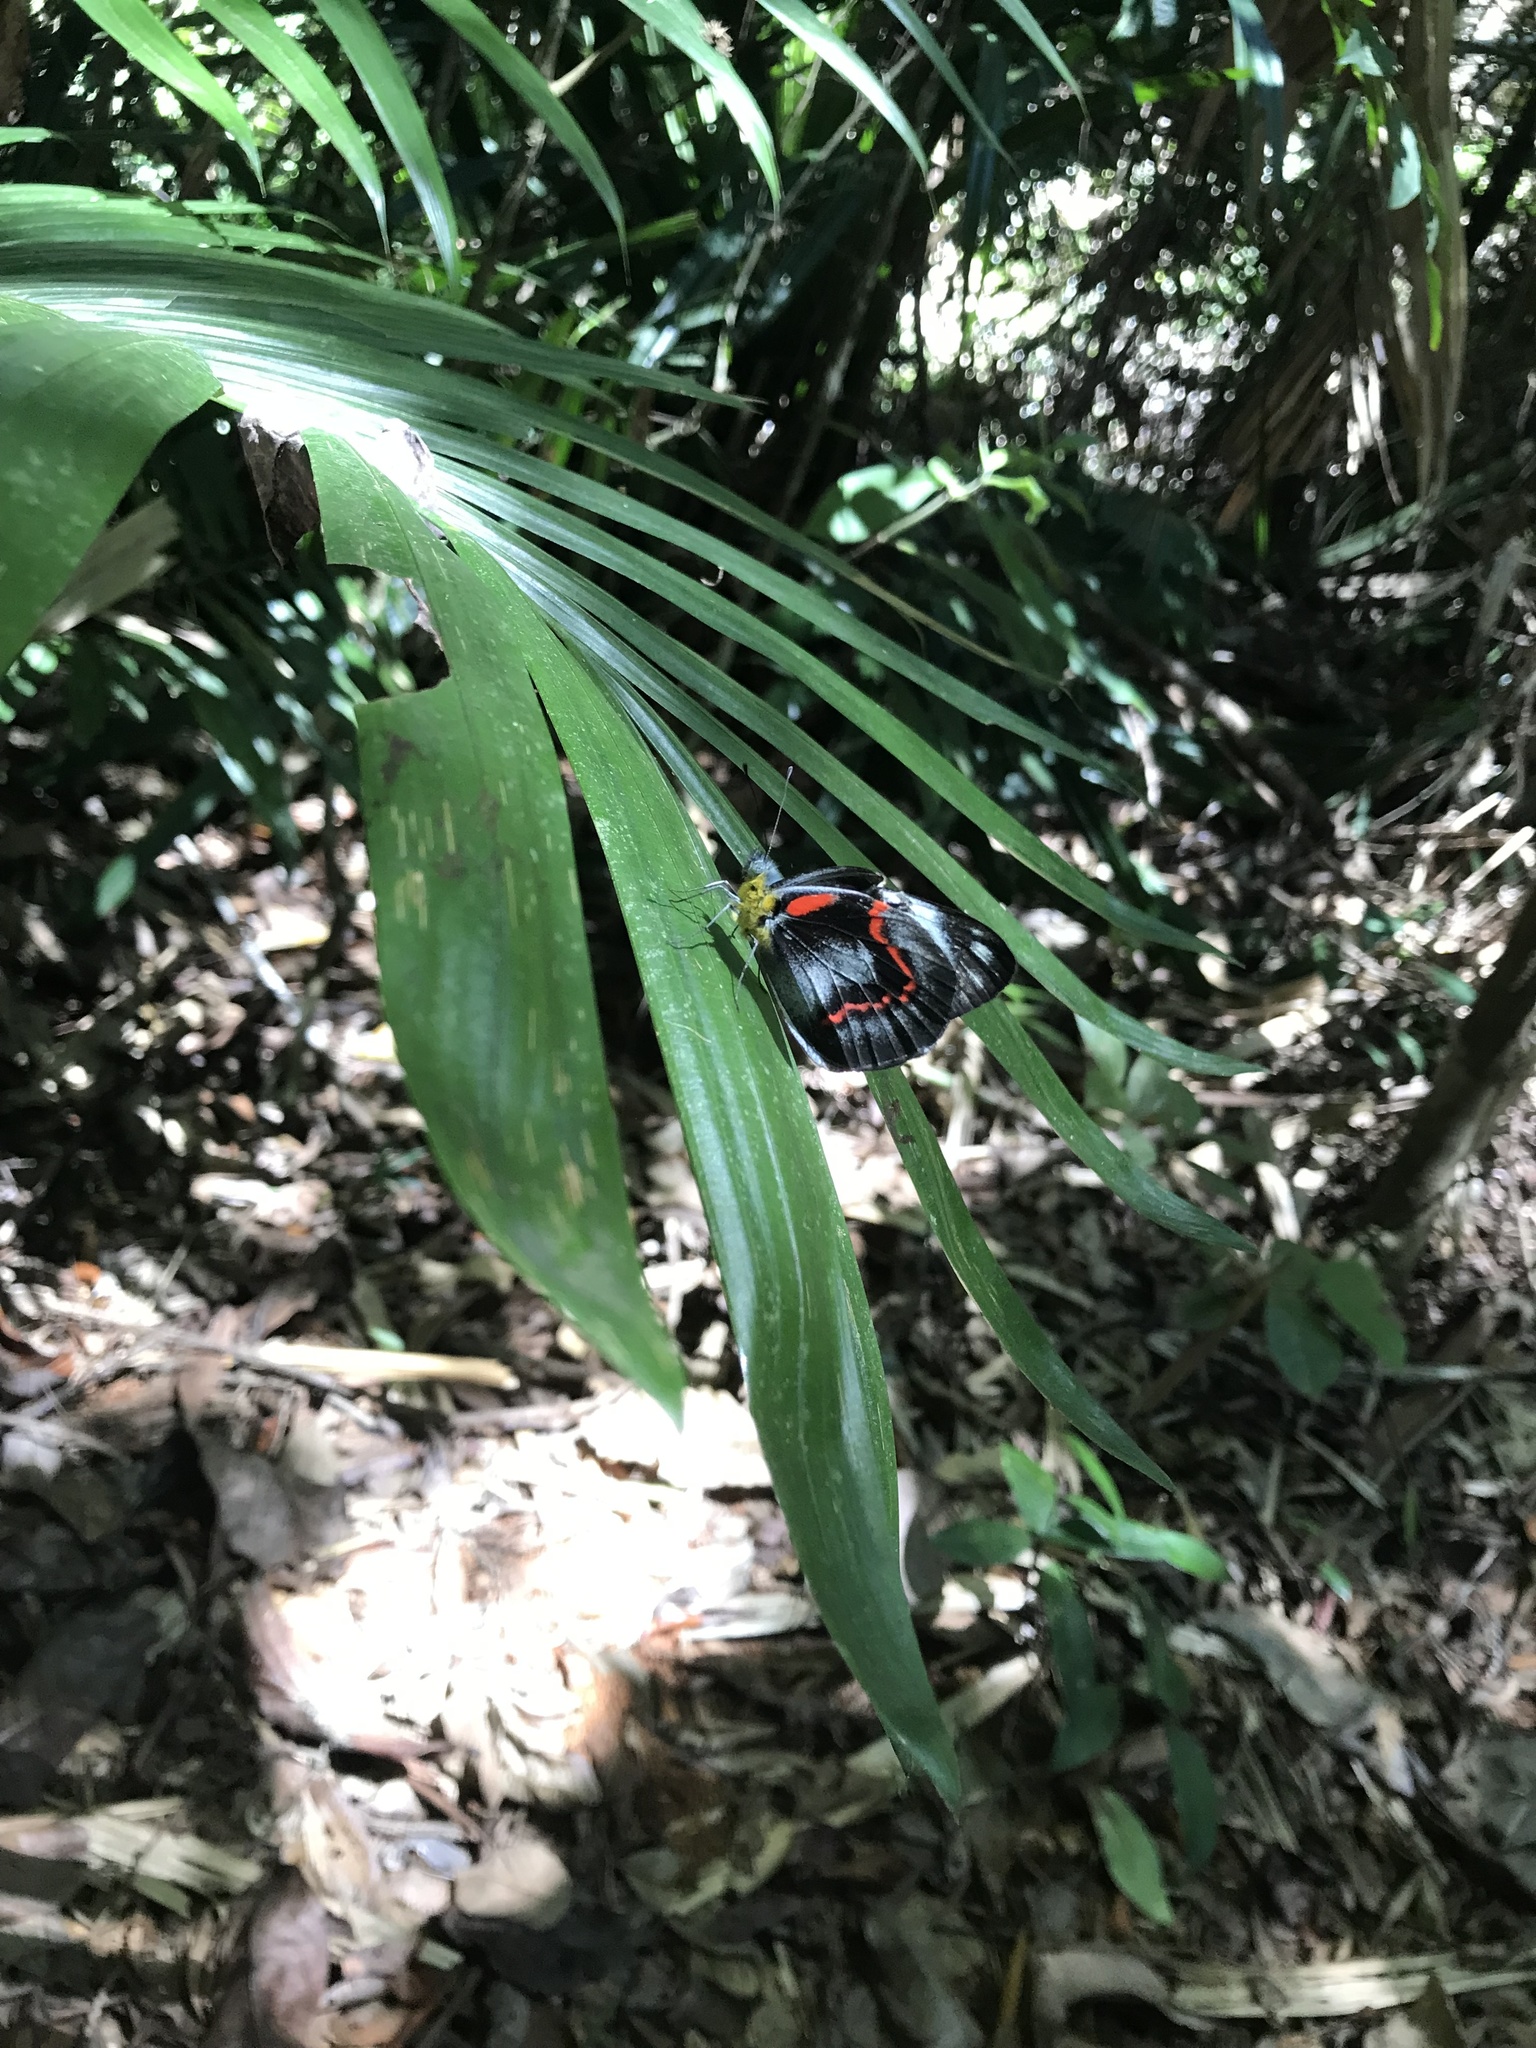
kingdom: Animalia
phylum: Arthropoda
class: Insecta
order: Lepidoptera
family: Pieridae
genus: Delias
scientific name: Delias nigrina
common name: Black jezebel
